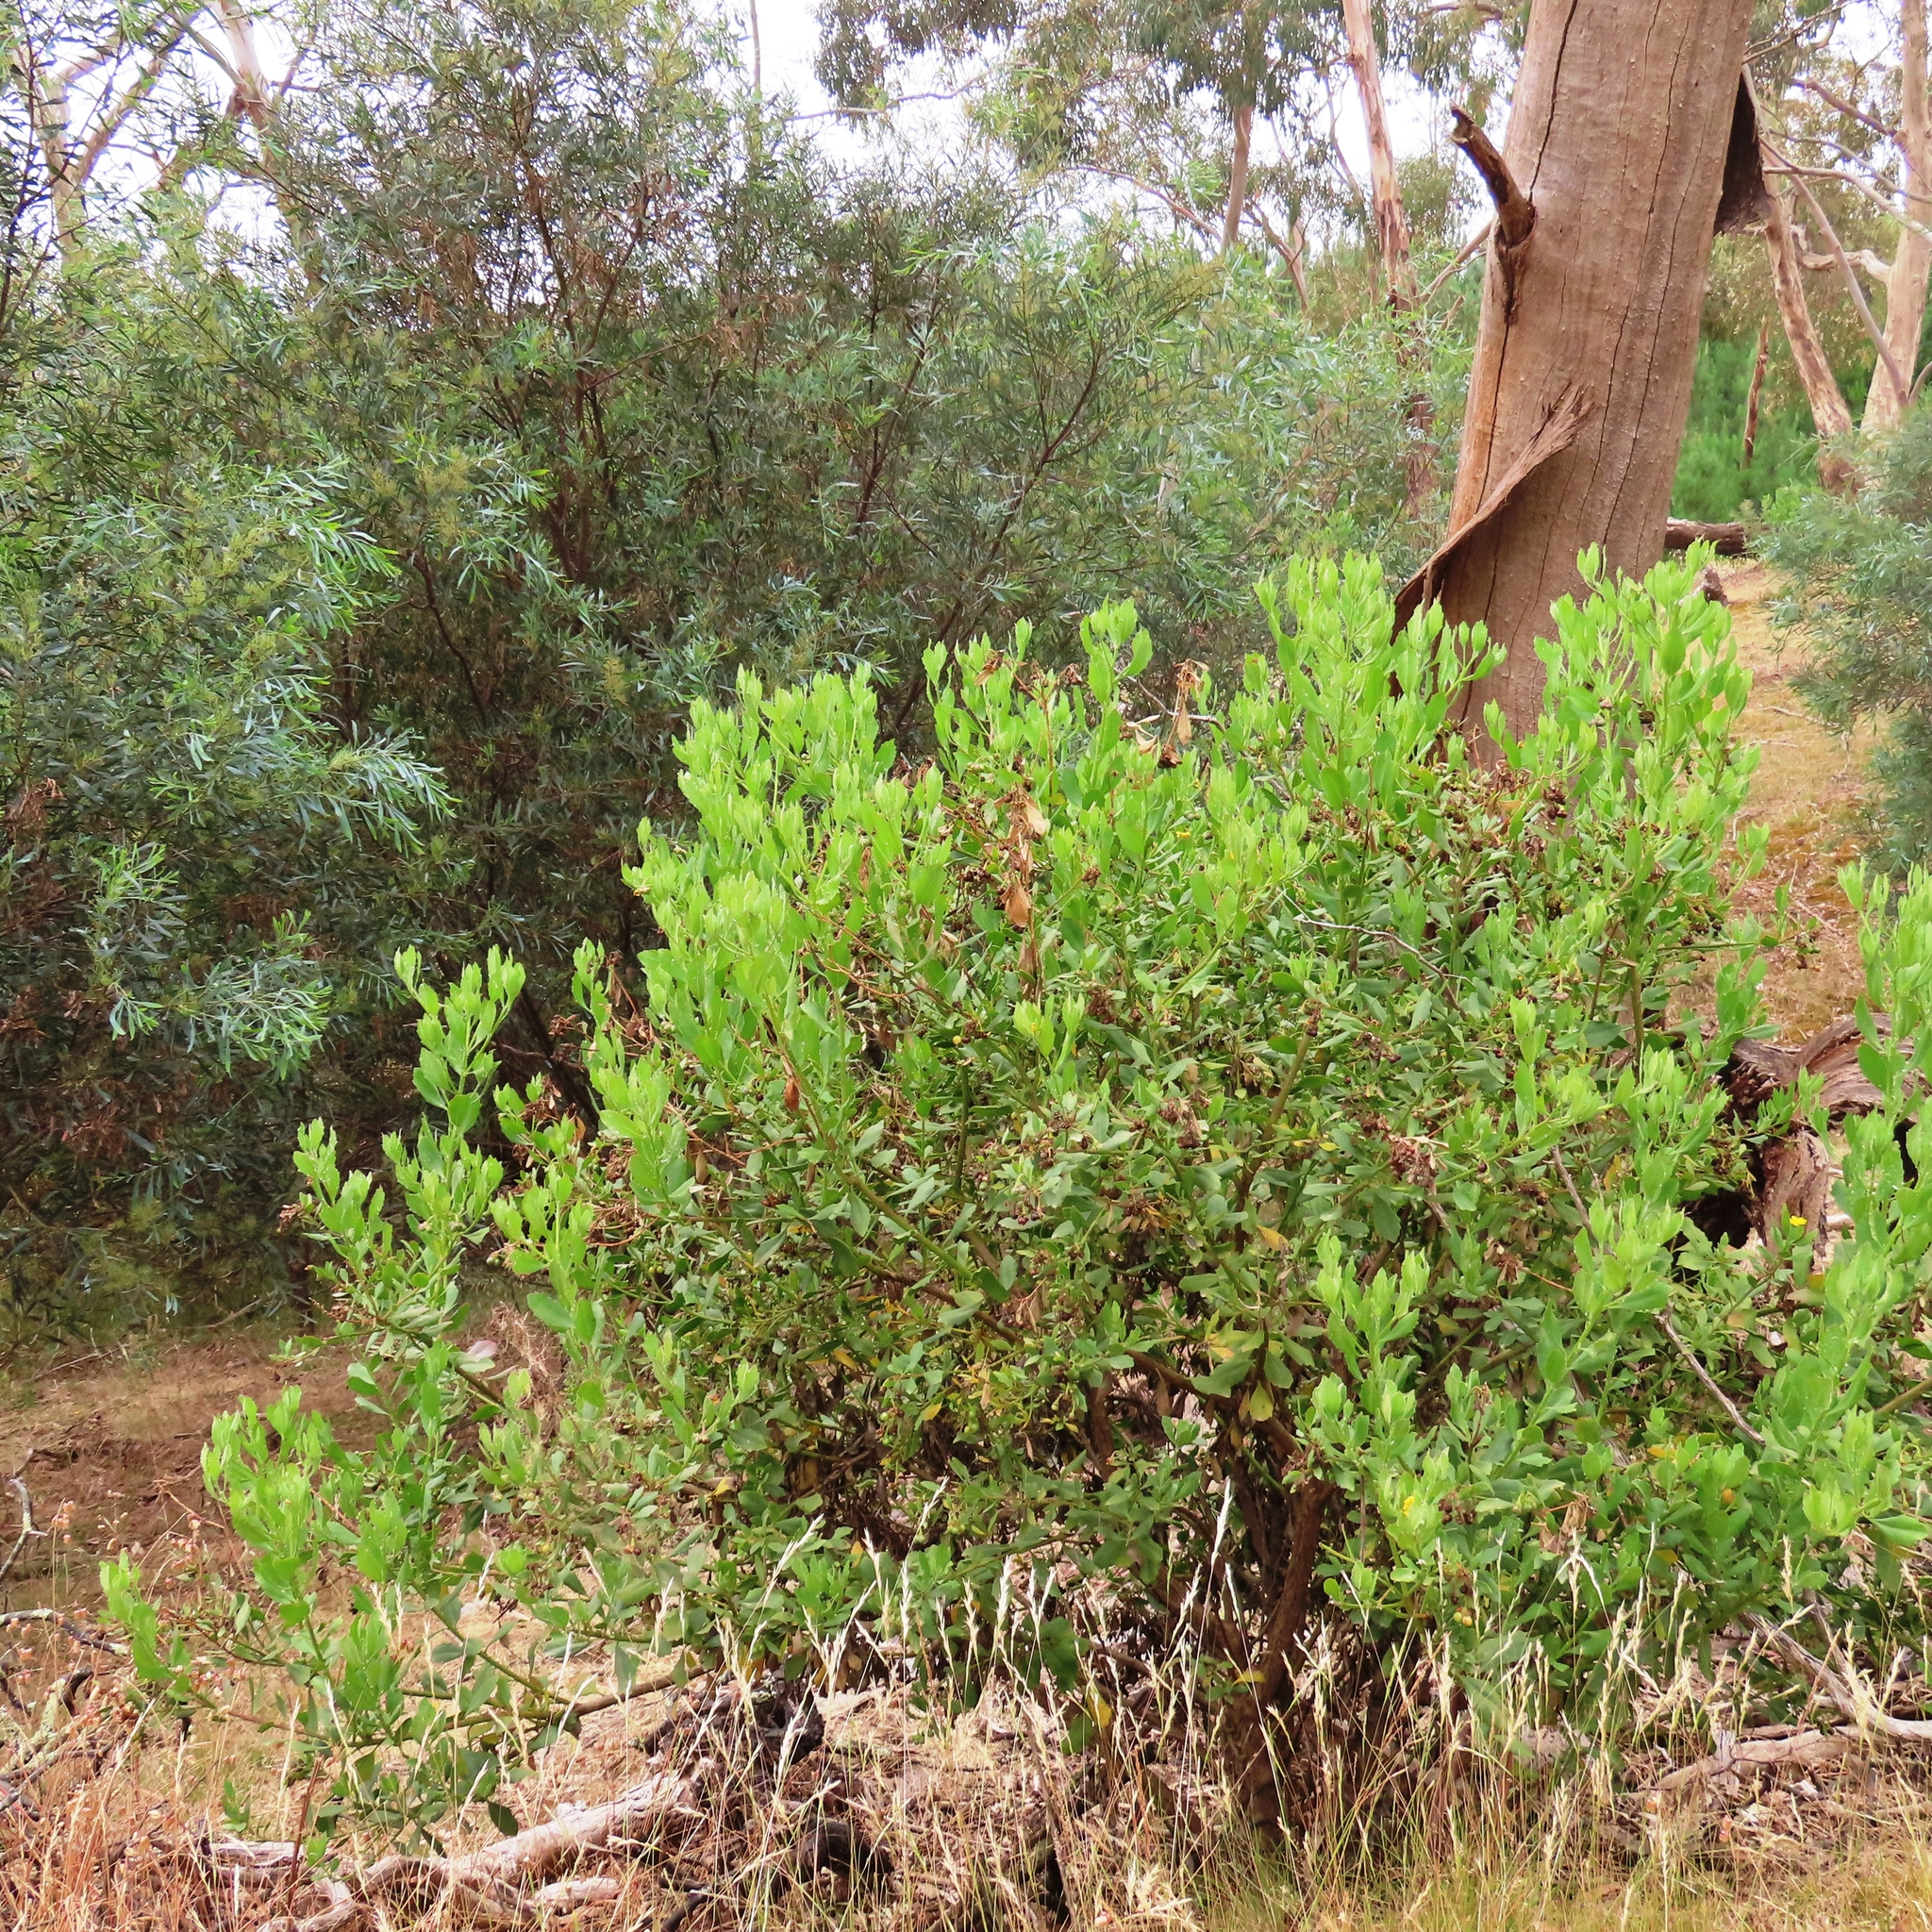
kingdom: Plantae
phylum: Tracheophyta
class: Magnoliopsida
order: Asterales
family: Asteraceae
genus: Osteospermum
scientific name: Osteospermum moniliferum
